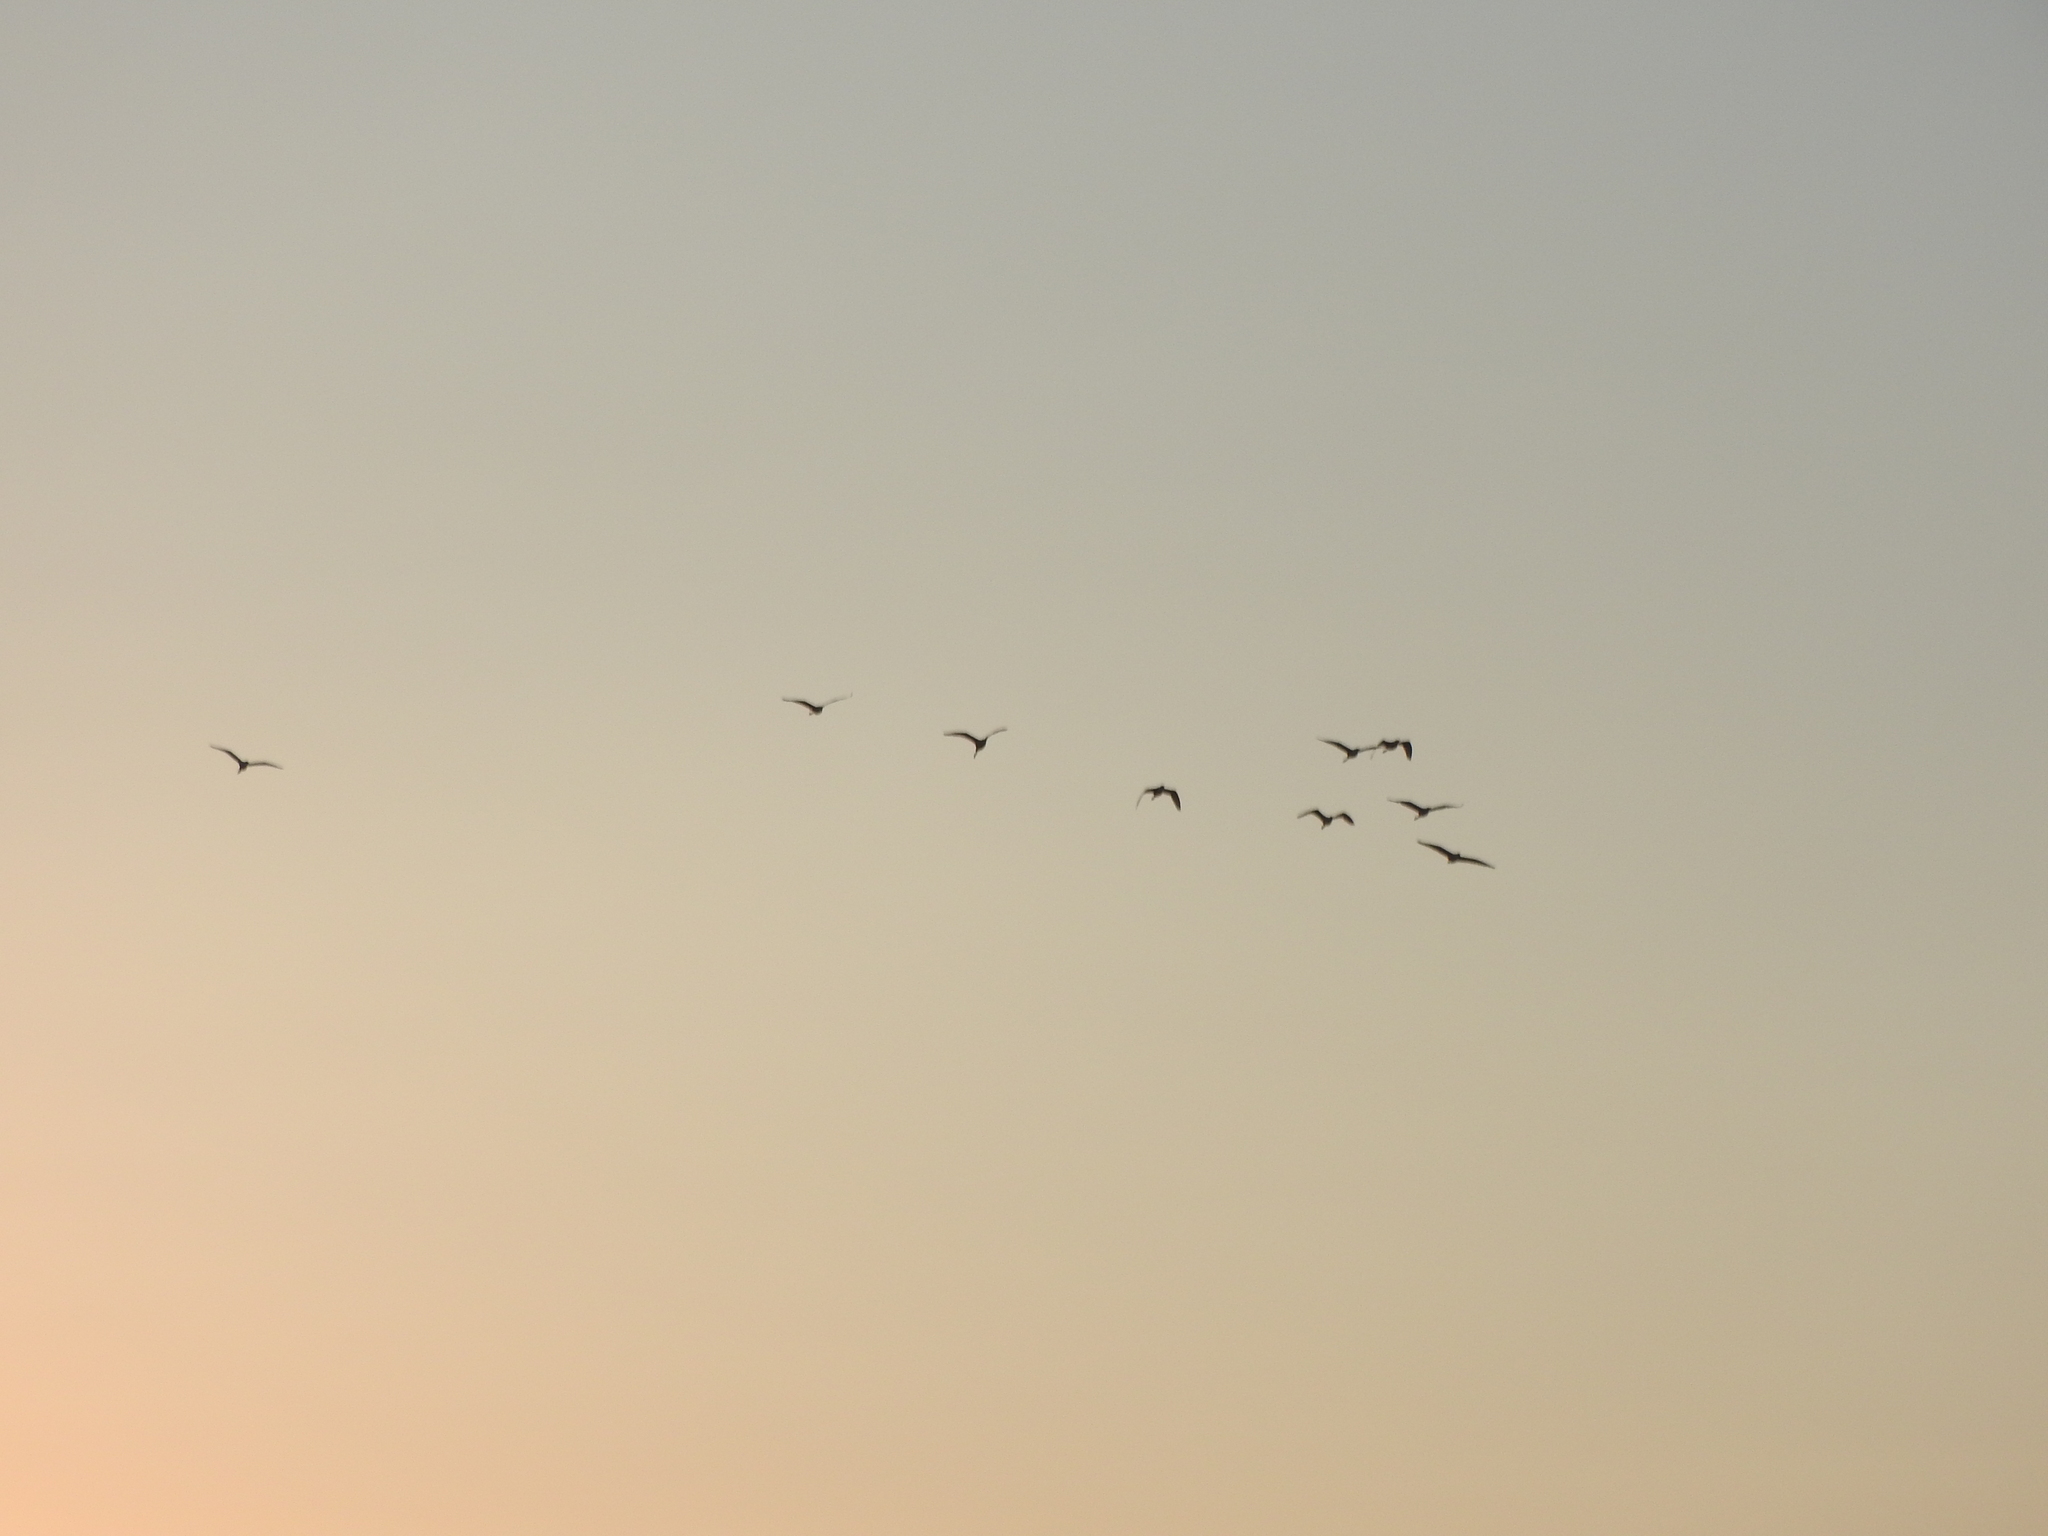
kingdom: Animalia
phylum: Chordata
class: Aves
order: Pelecaniformes
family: Ardeidae
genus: Bubulcus
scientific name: Bubulcus ibis
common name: Cattle egret
